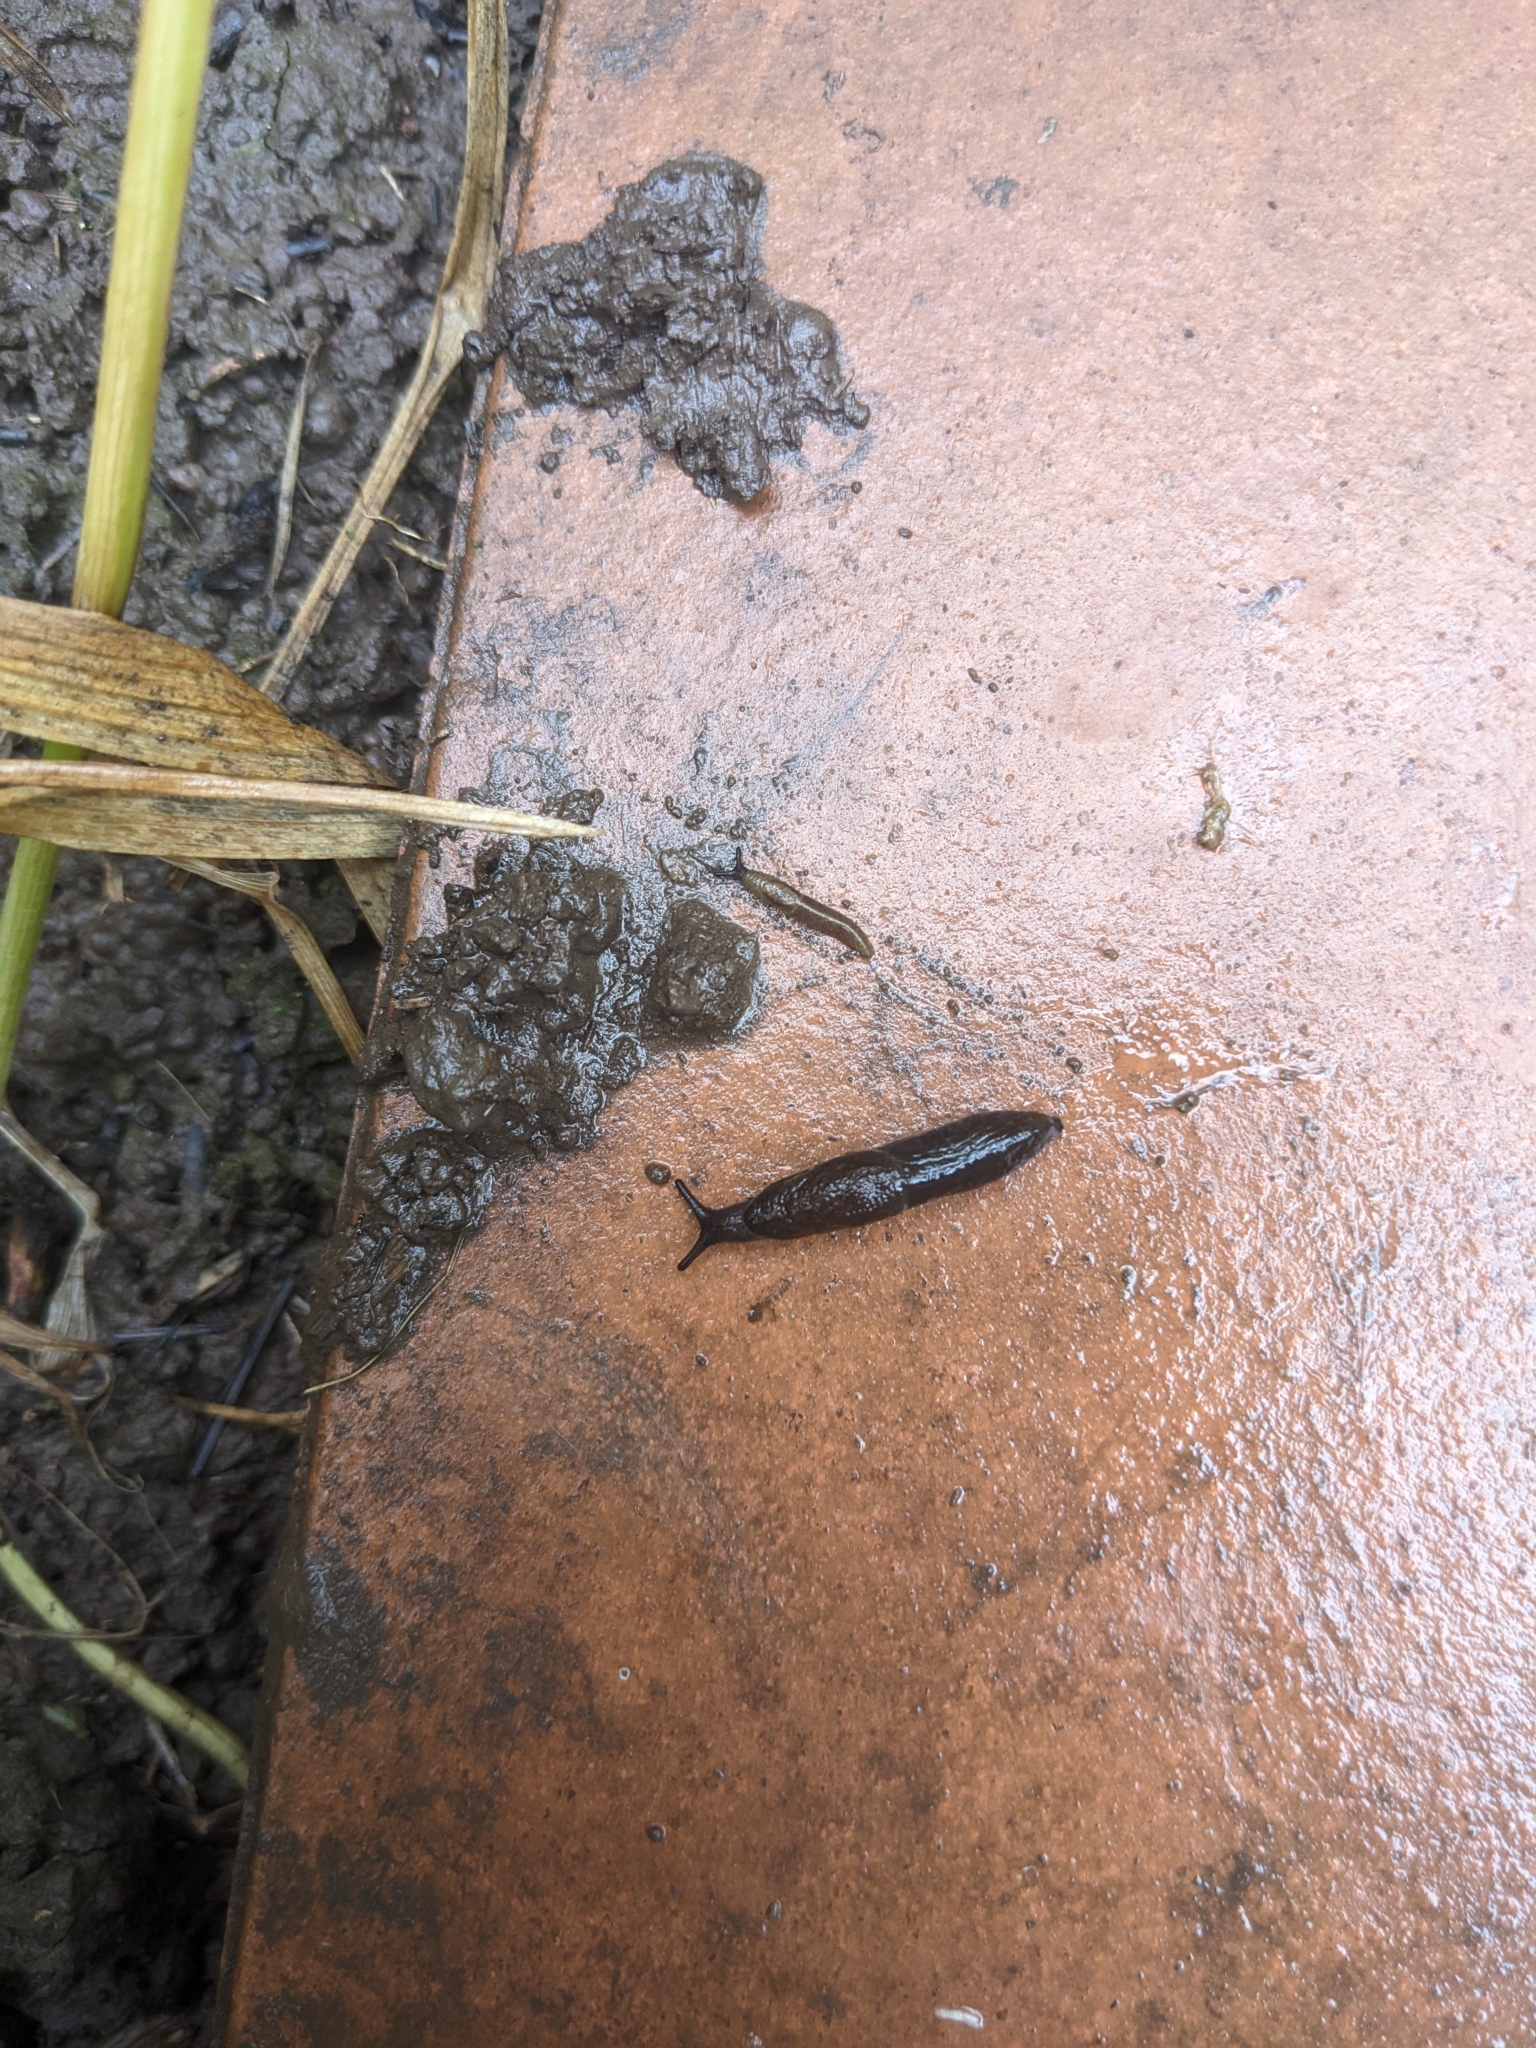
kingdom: Animalia
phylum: Mollusca
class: Gastropoda
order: Stylommatophora
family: Milacidae
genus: Milax
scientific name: Milax gagates
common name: Greenhouse slug
